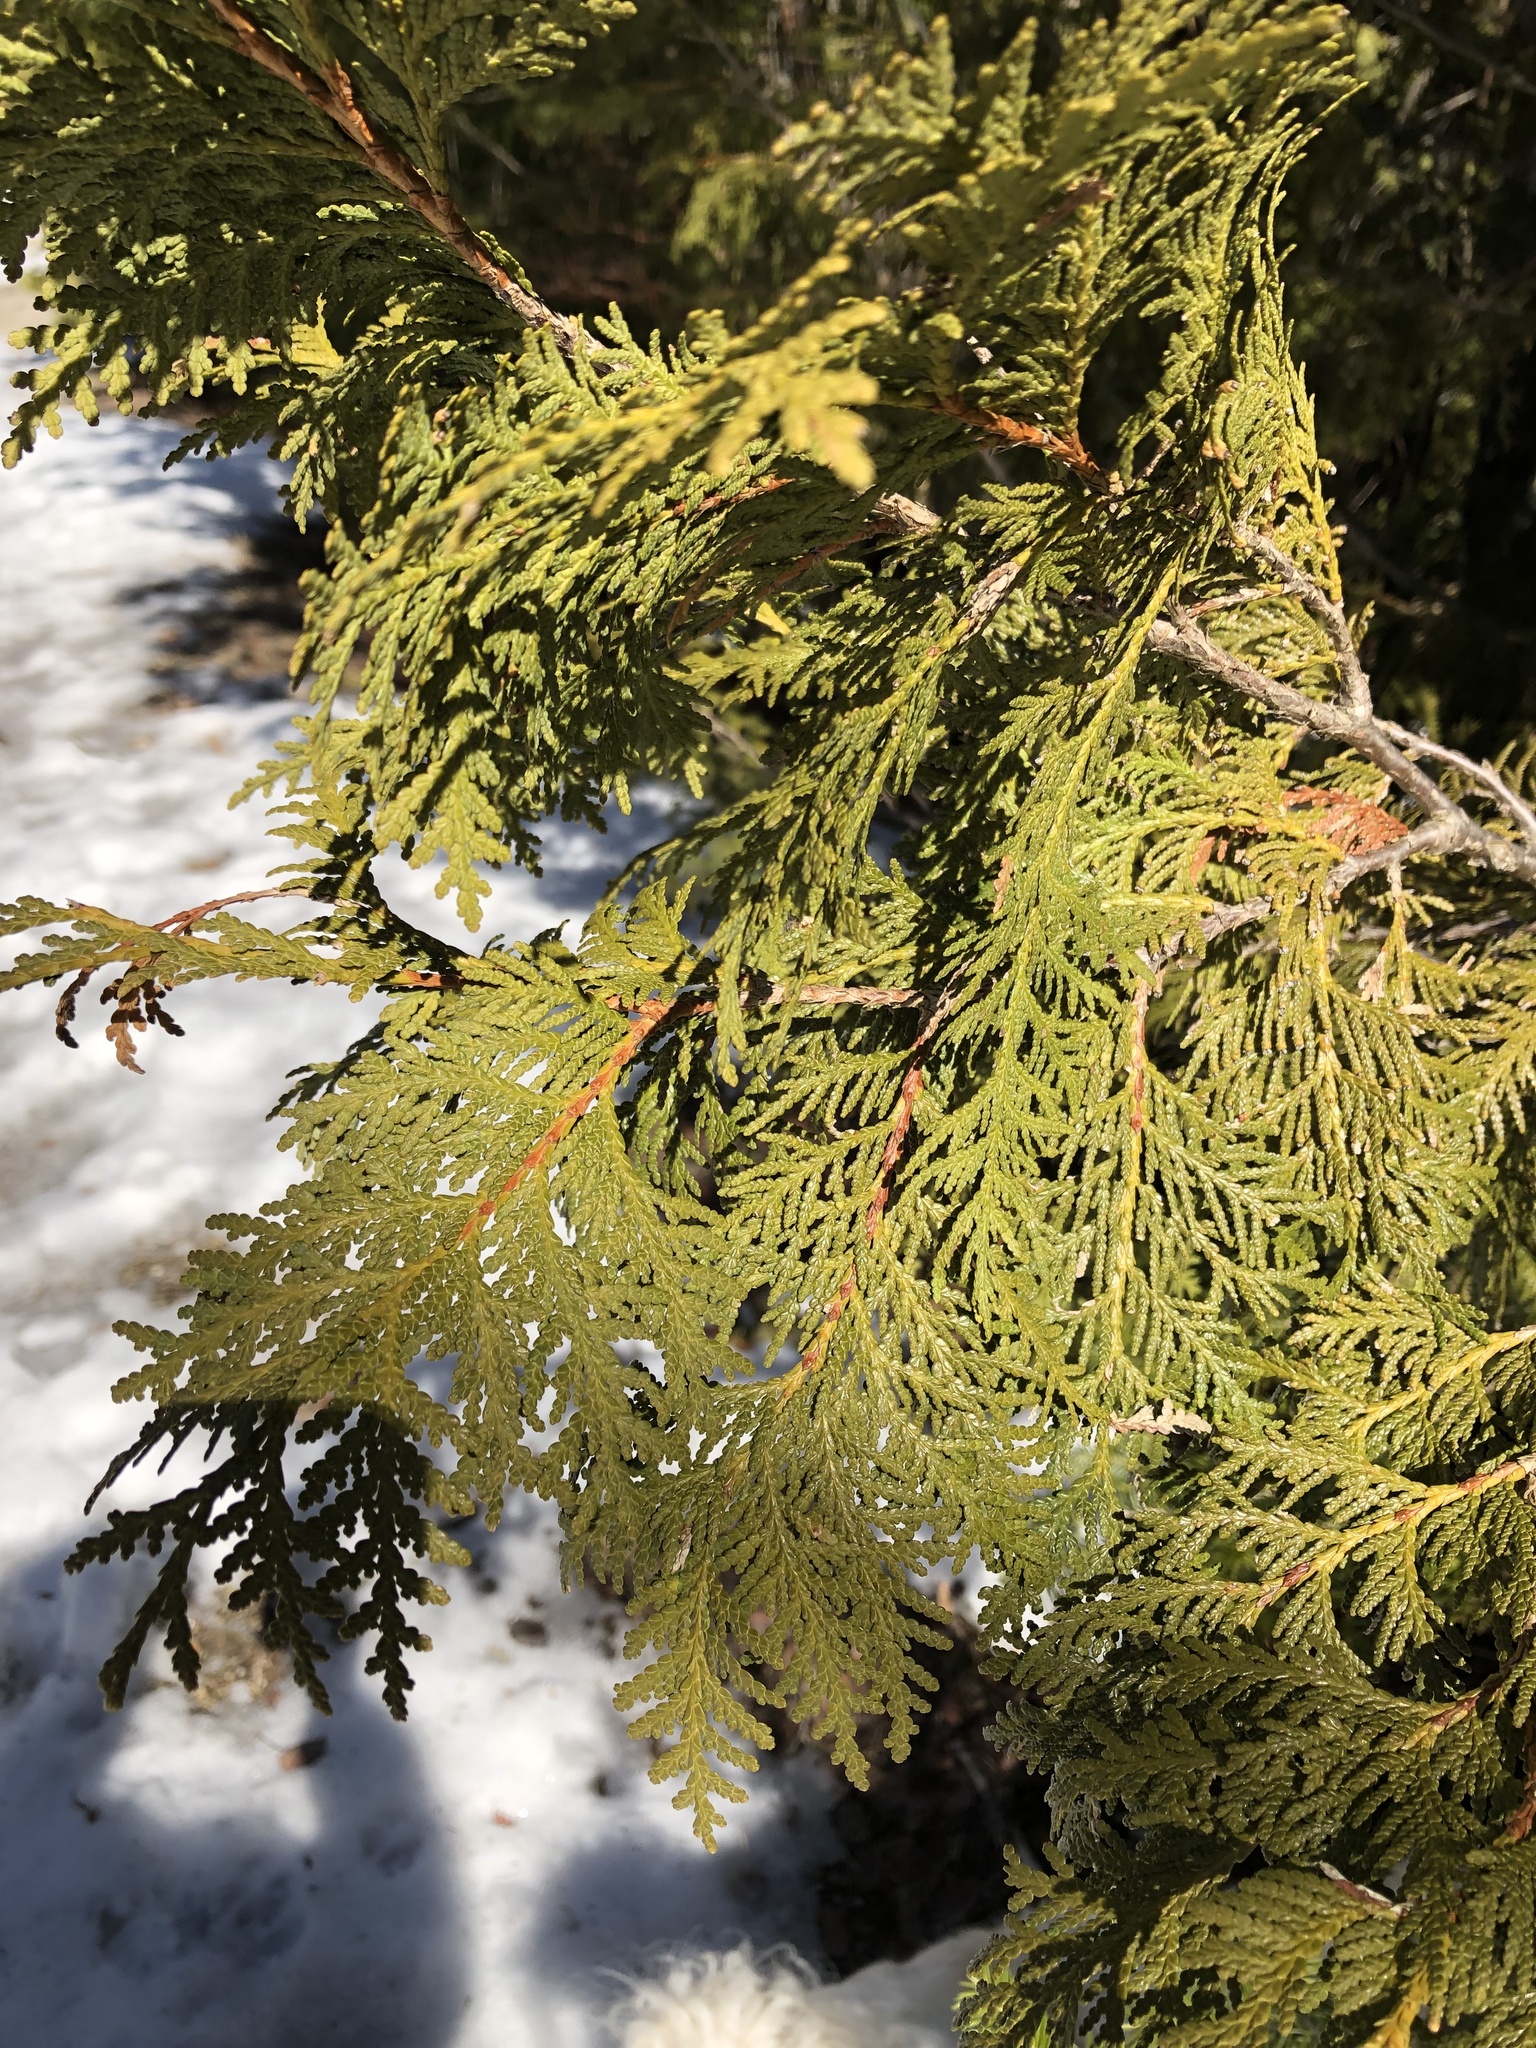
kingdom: Plantae
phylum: Tracheophyta
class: Pinopsida
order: Pinales
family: Cupressaceae
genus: Thuja
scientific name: Thuja occidentalis
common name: Northern white-cedar
